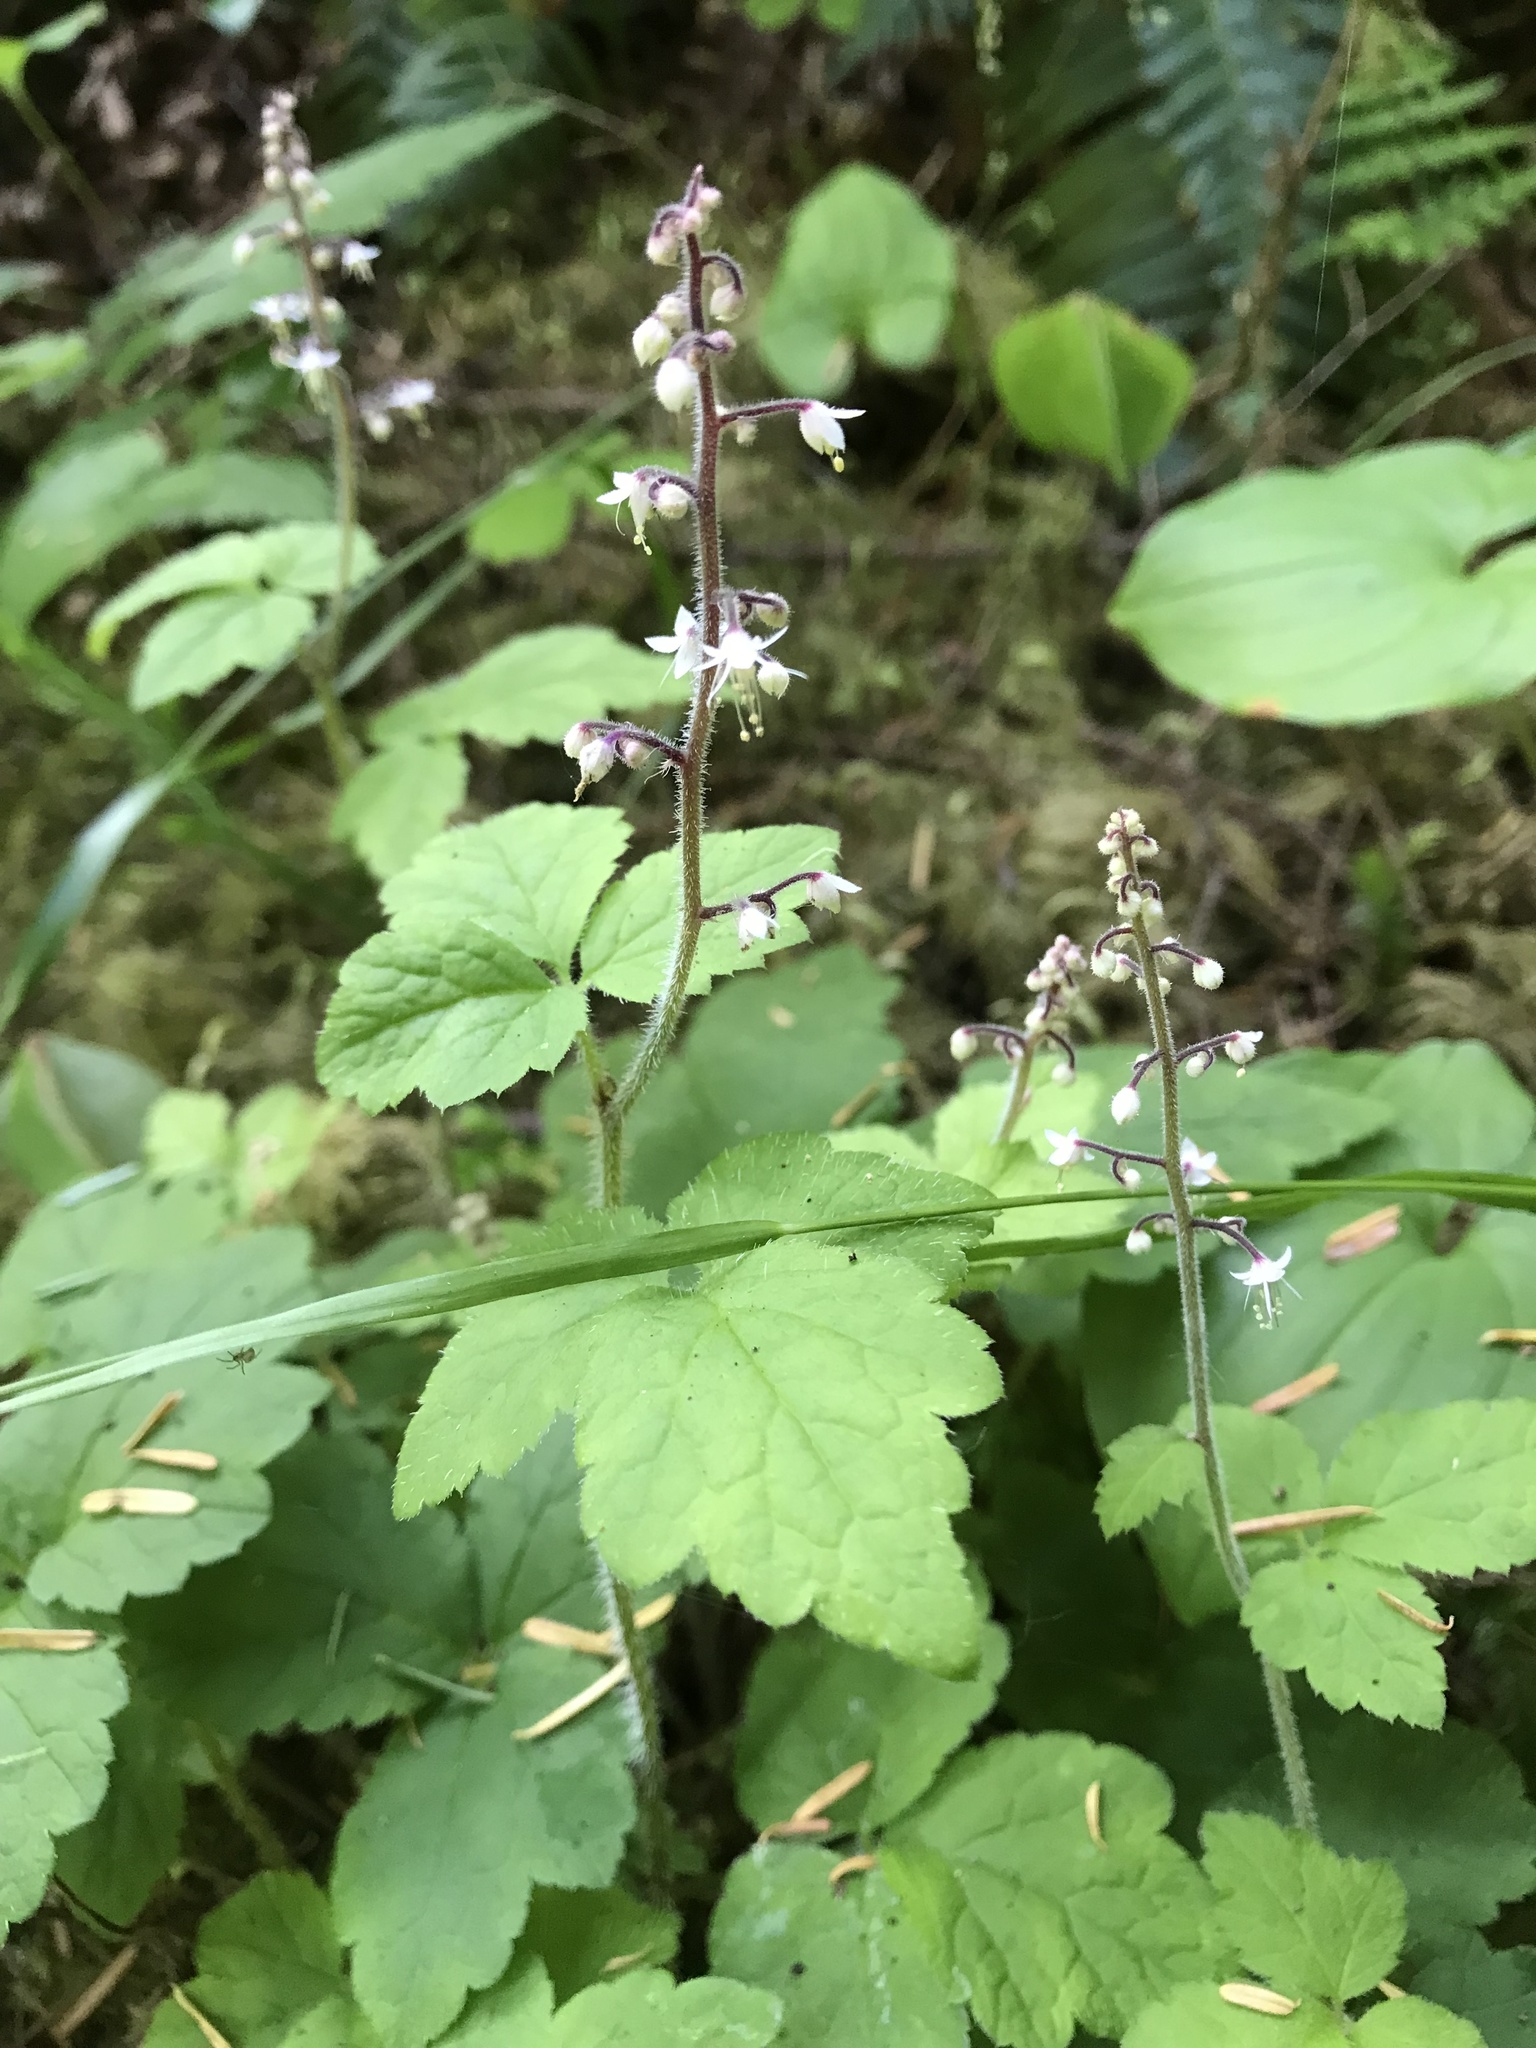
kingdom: Plantae
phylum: Tracheophyta
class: Magnoliopsida
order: Saxifragales
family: Saxifragaceae
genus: Tiarella
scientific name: Tiarella trifoliata
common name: Sugar-scoop
